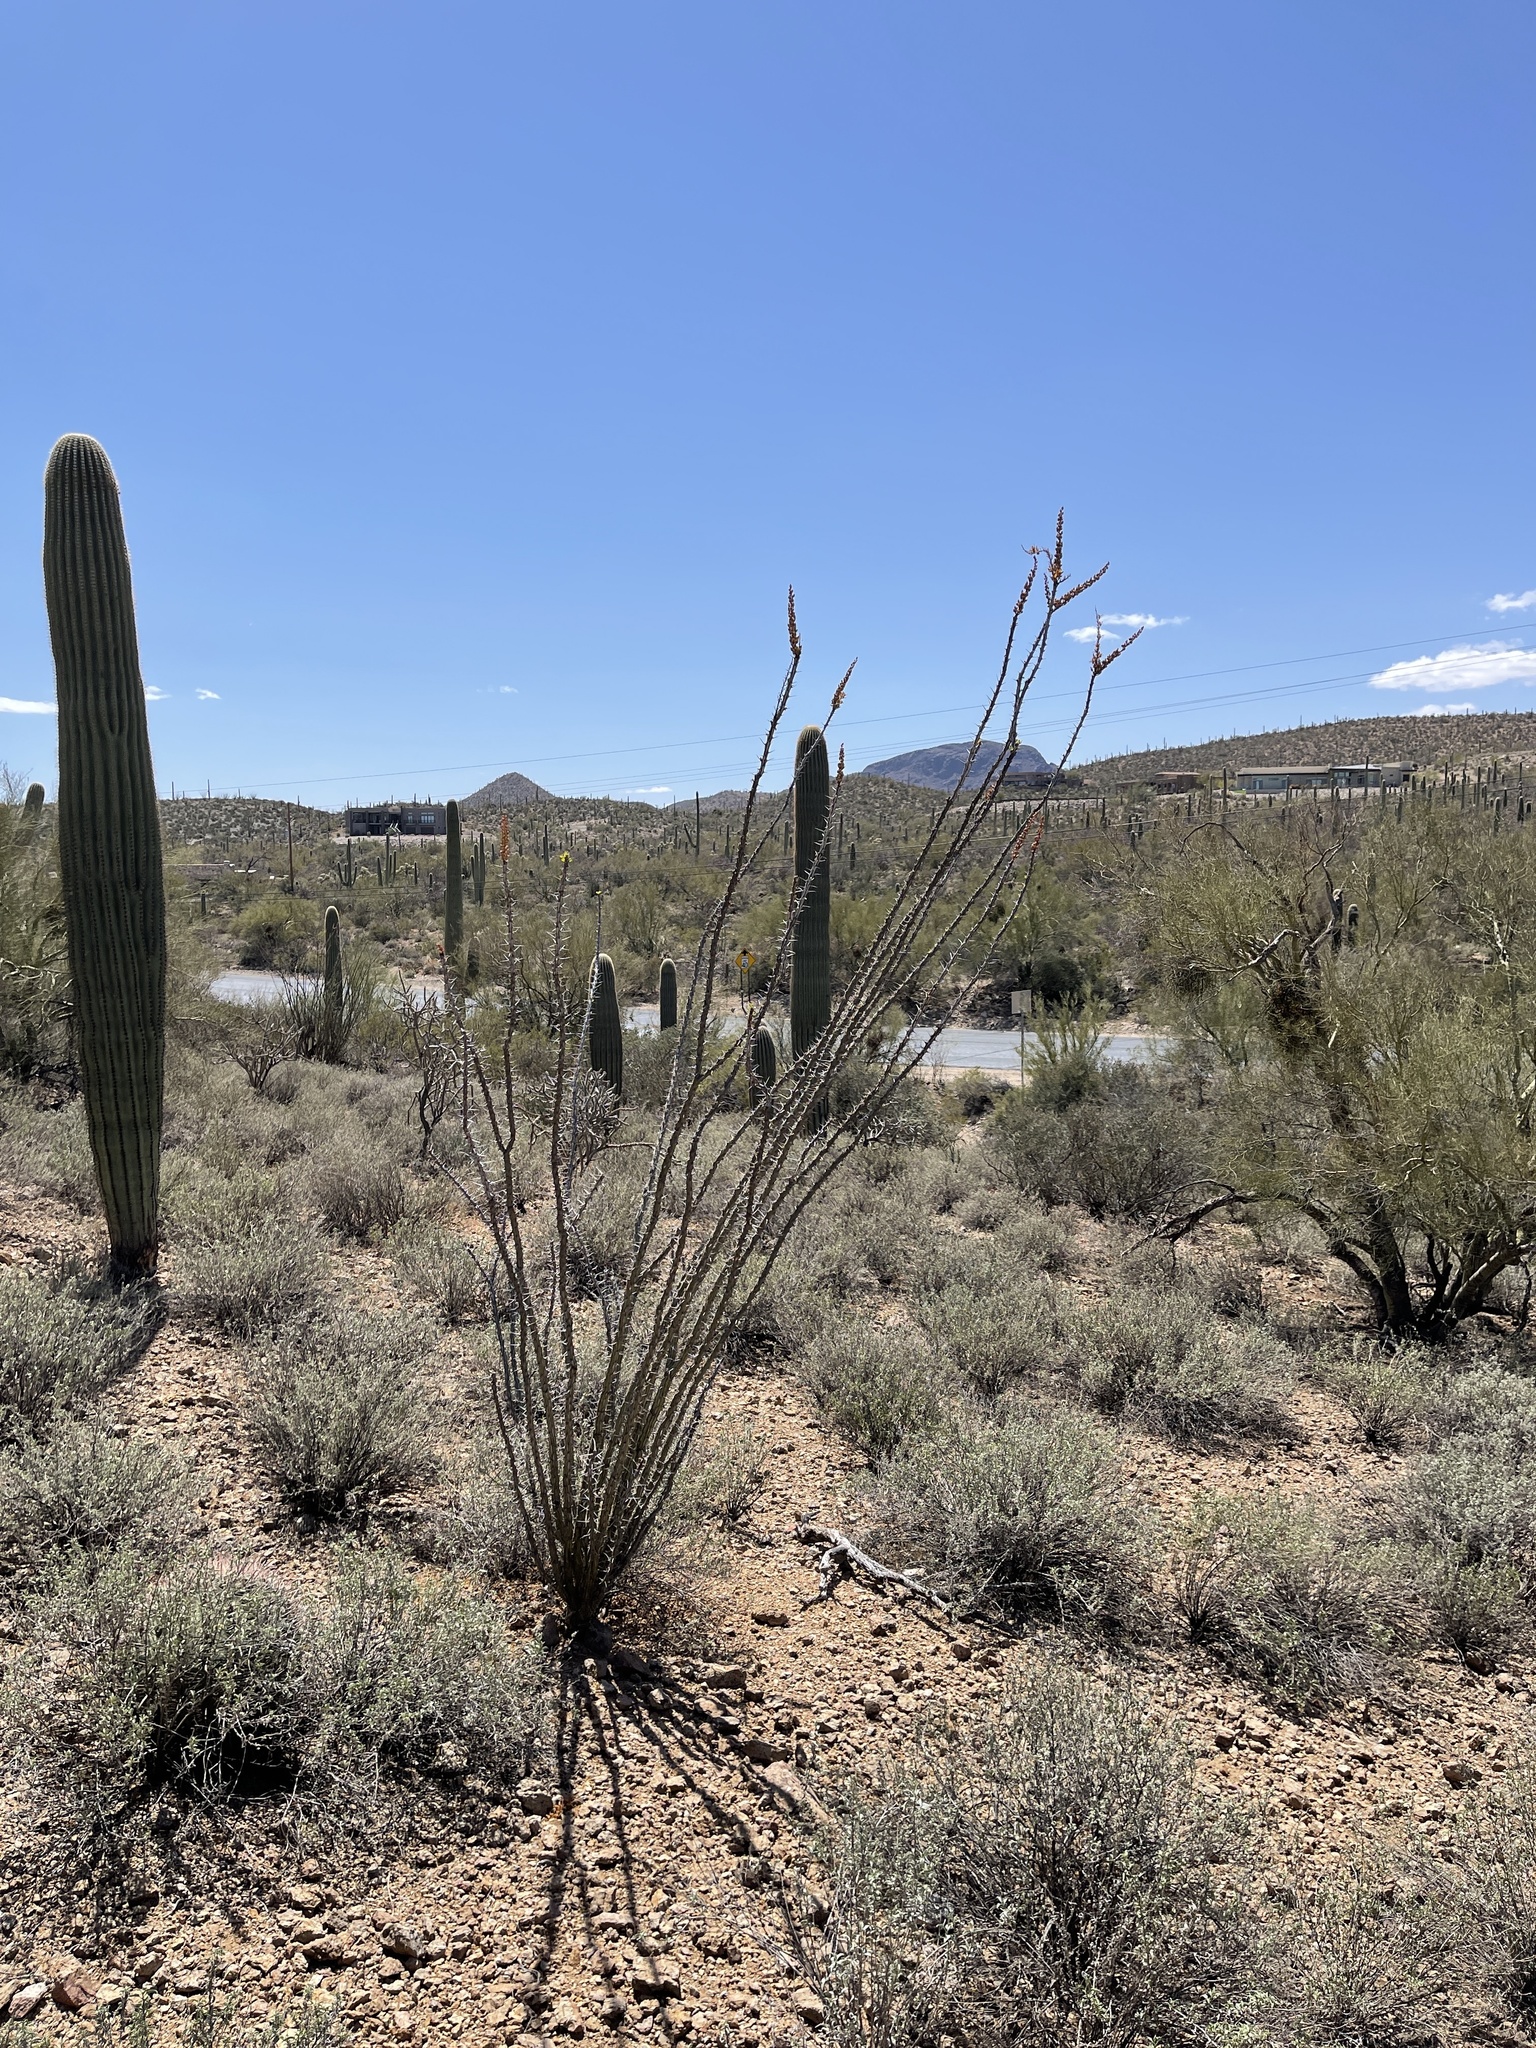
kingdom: Plantae
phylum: Tracheophyta
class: Magnoliopsida
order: Ericales
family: Fouquieriaceae
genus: Fouquieria
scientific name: Fouquieria splendens
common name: Vine-cactus
